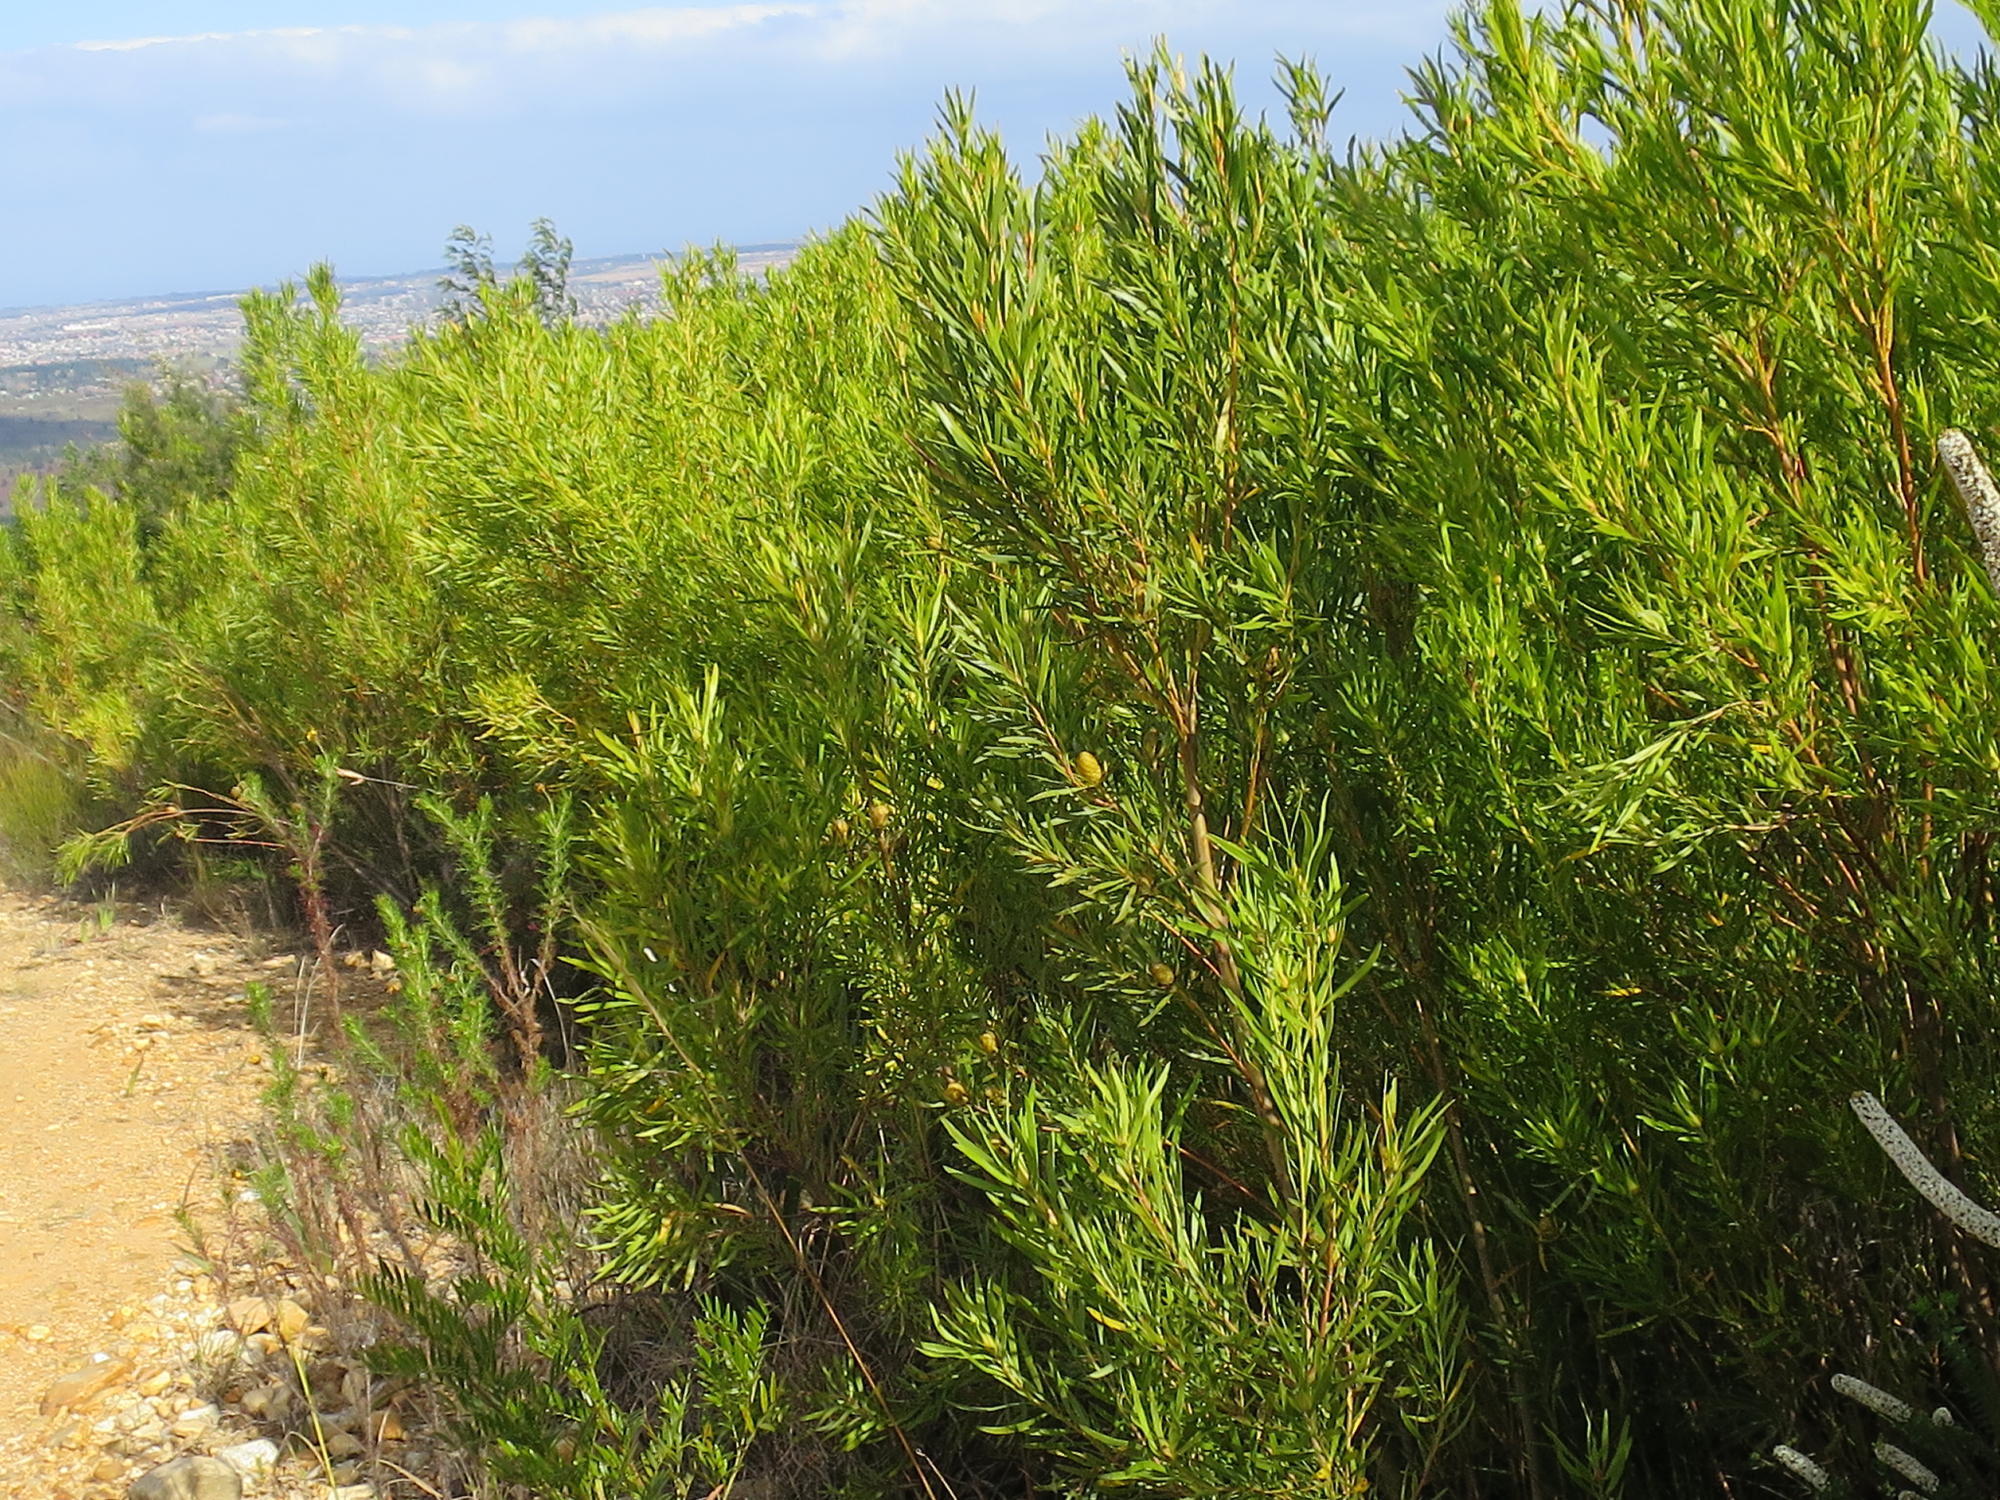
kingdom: Plantae
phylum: Tracheophyta
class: Magnoliopsida
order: Proteales
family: Proteaceae
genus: Leucadendron
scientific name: Leucadendron eucalyptifolium
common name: Gum-leaved conebush
